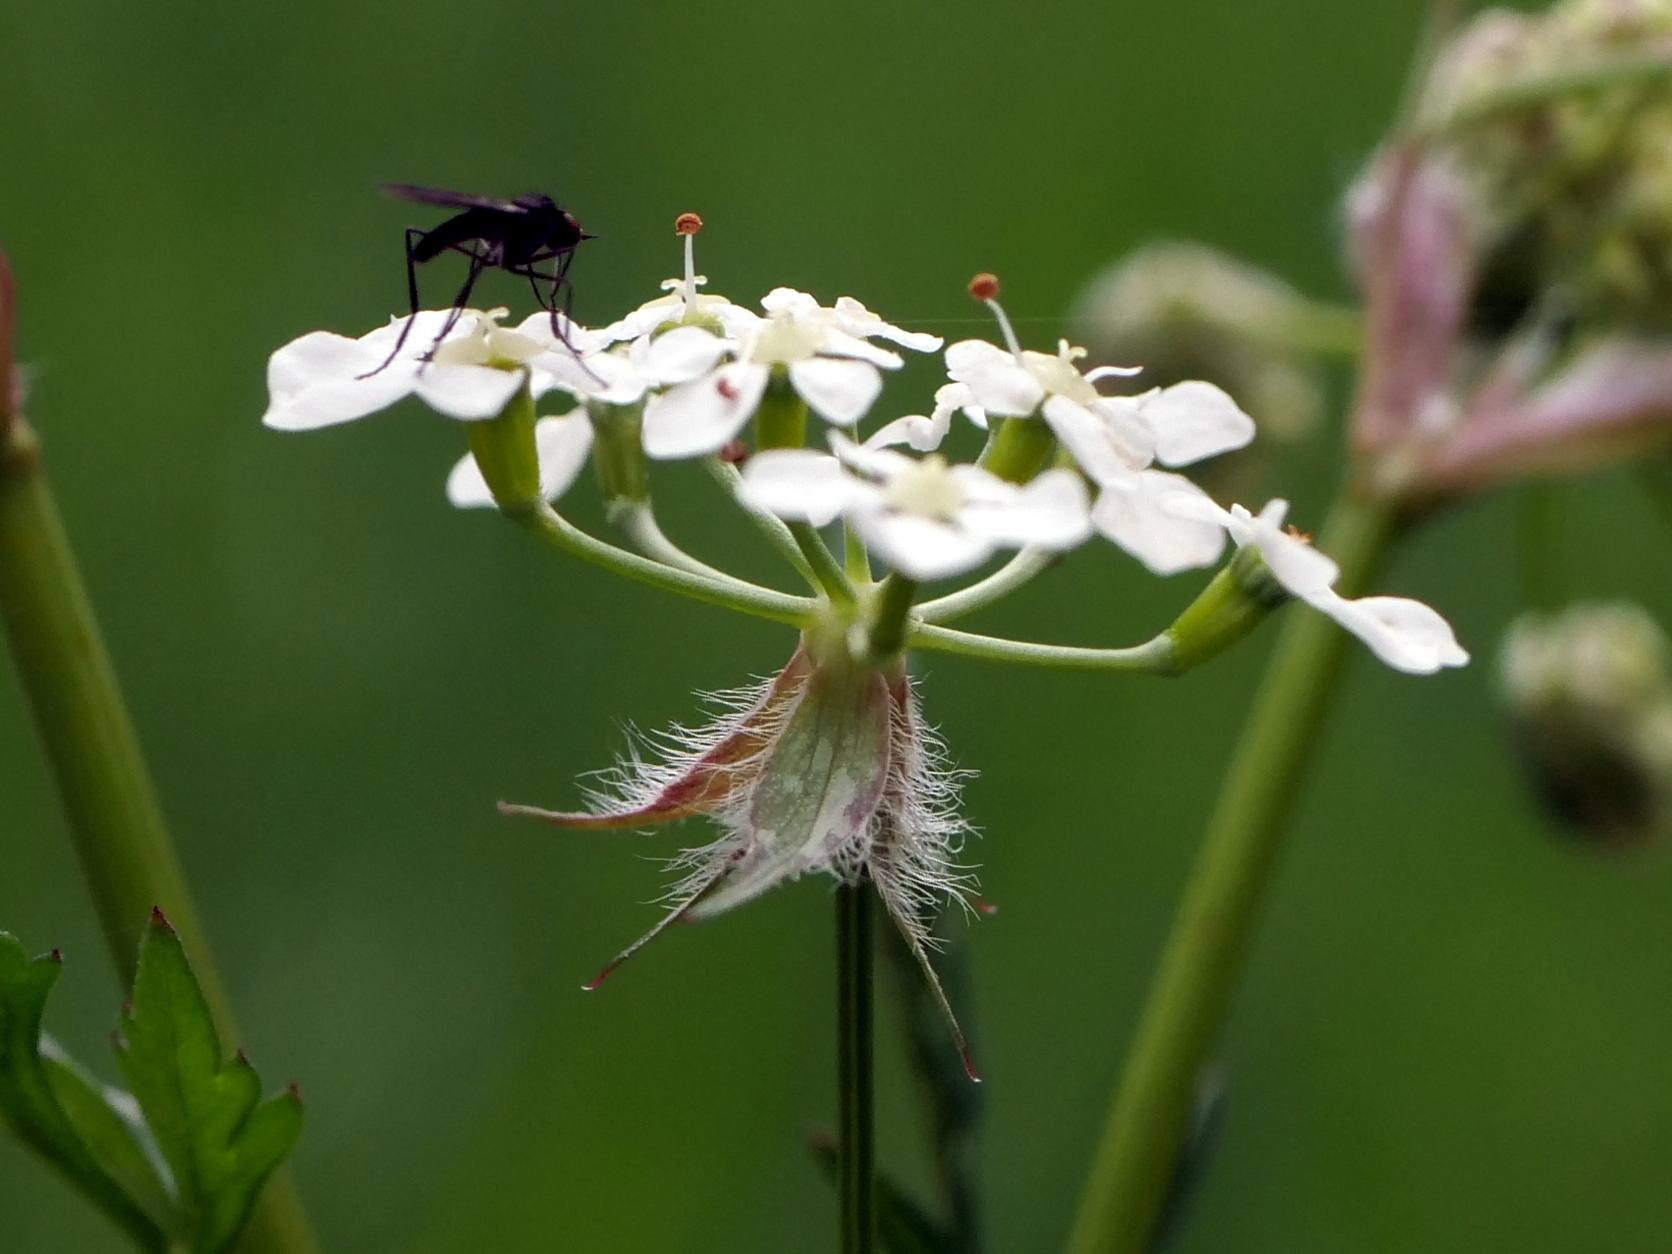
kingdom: Plantae
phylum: Tracheophyta
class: Magnoliopsida
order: Apiales
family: Apiaceae
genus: Anthriscus
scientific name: Anthriscus sylvestris
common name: Cow parsley
